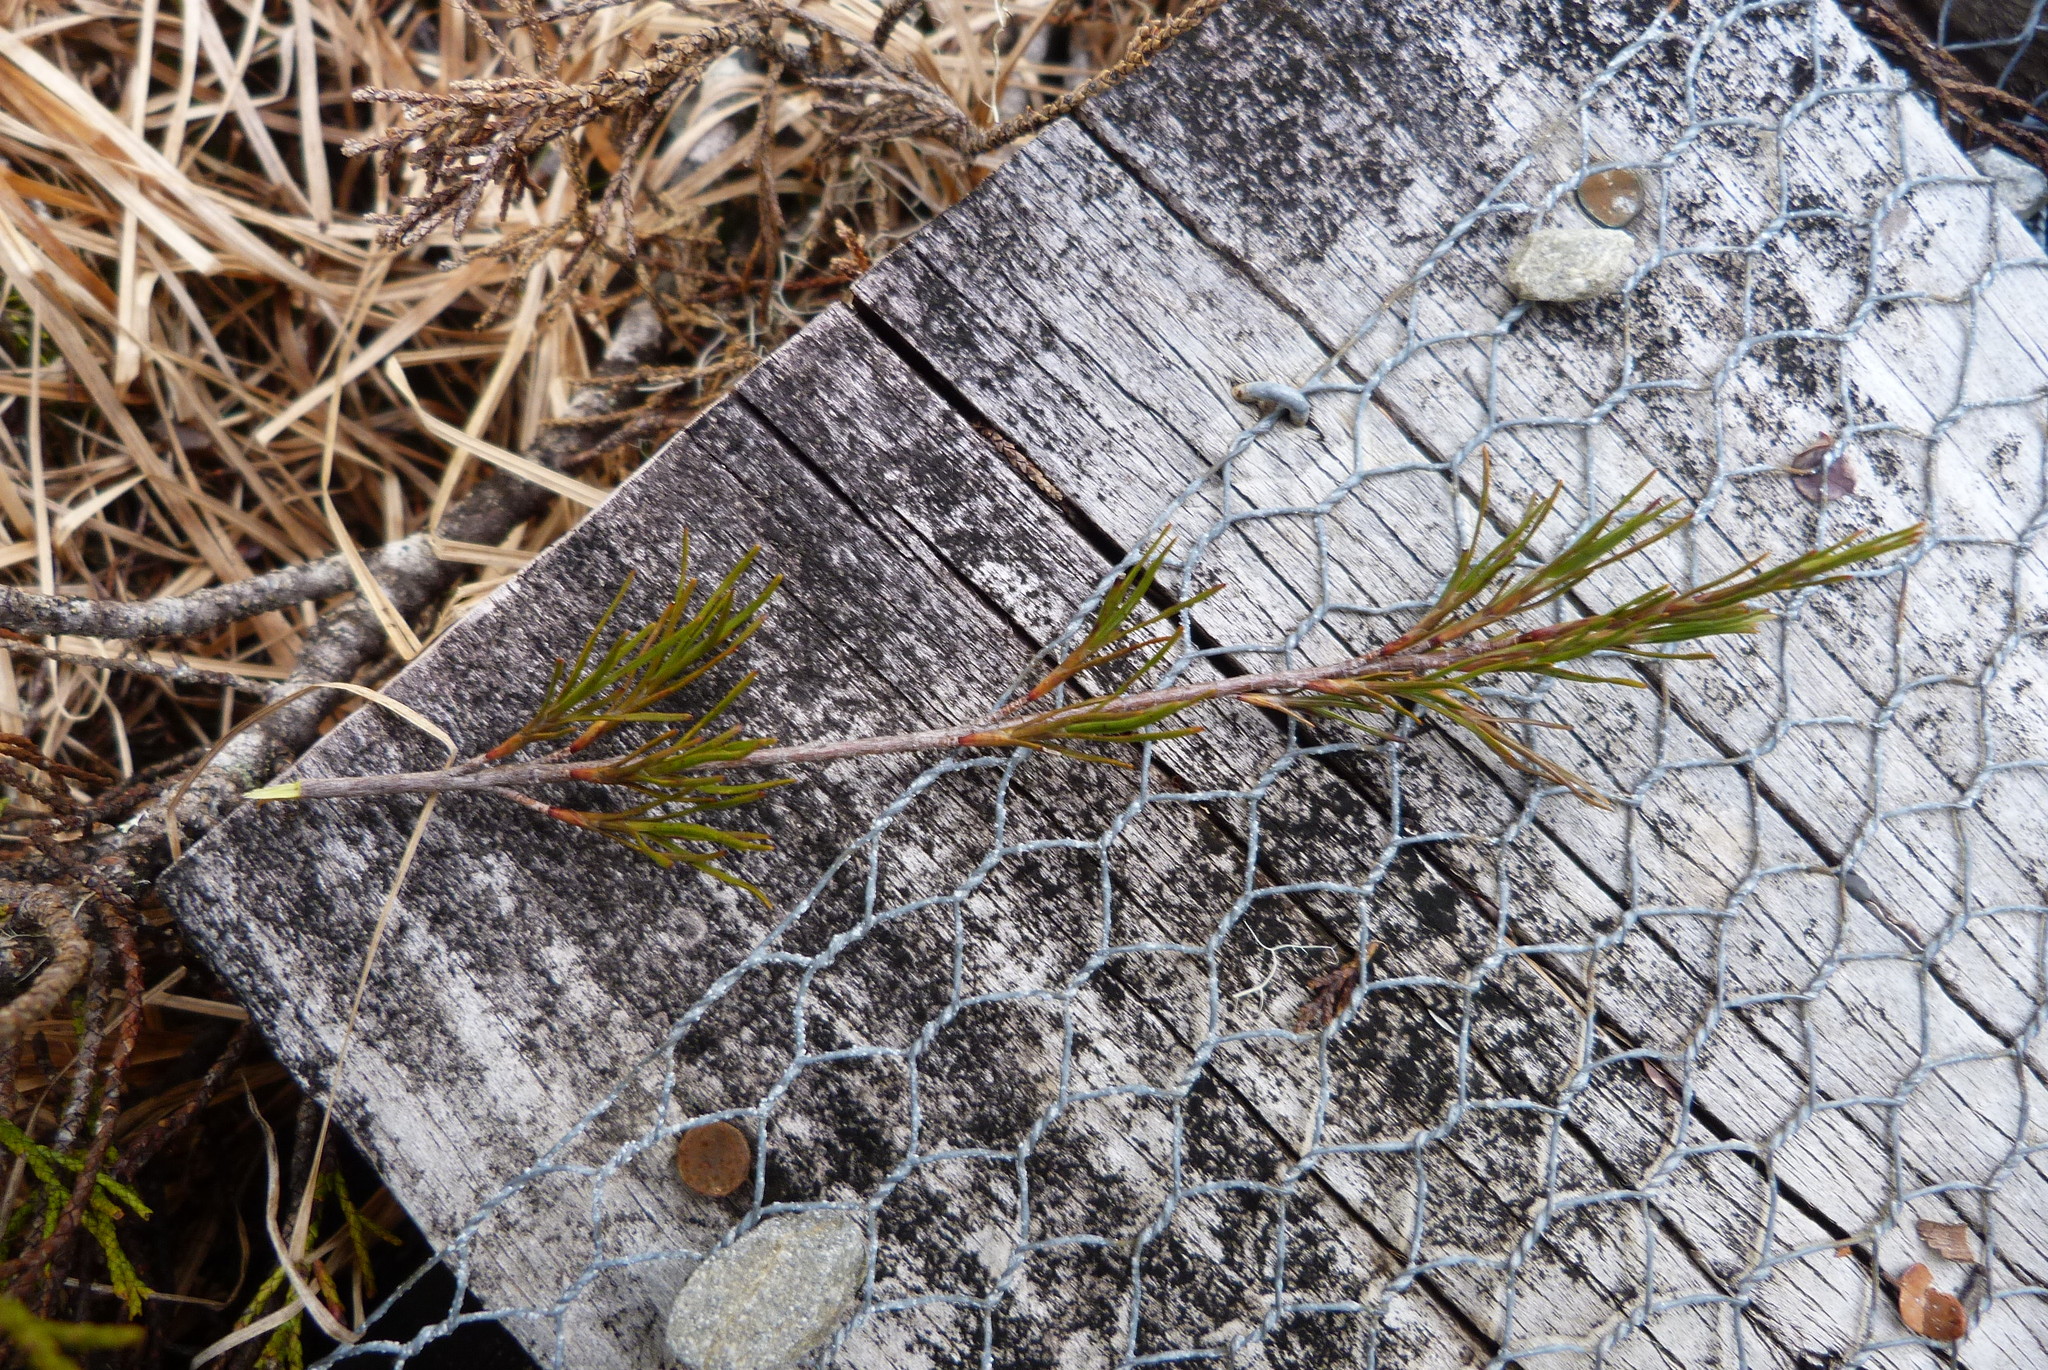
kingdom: Plantae
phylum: Tracheophyta
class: Magnoliopsida
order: Ericales
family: Ericaceae
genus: Dracophyllum
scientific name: Dracophyllum rosmarinifolium
